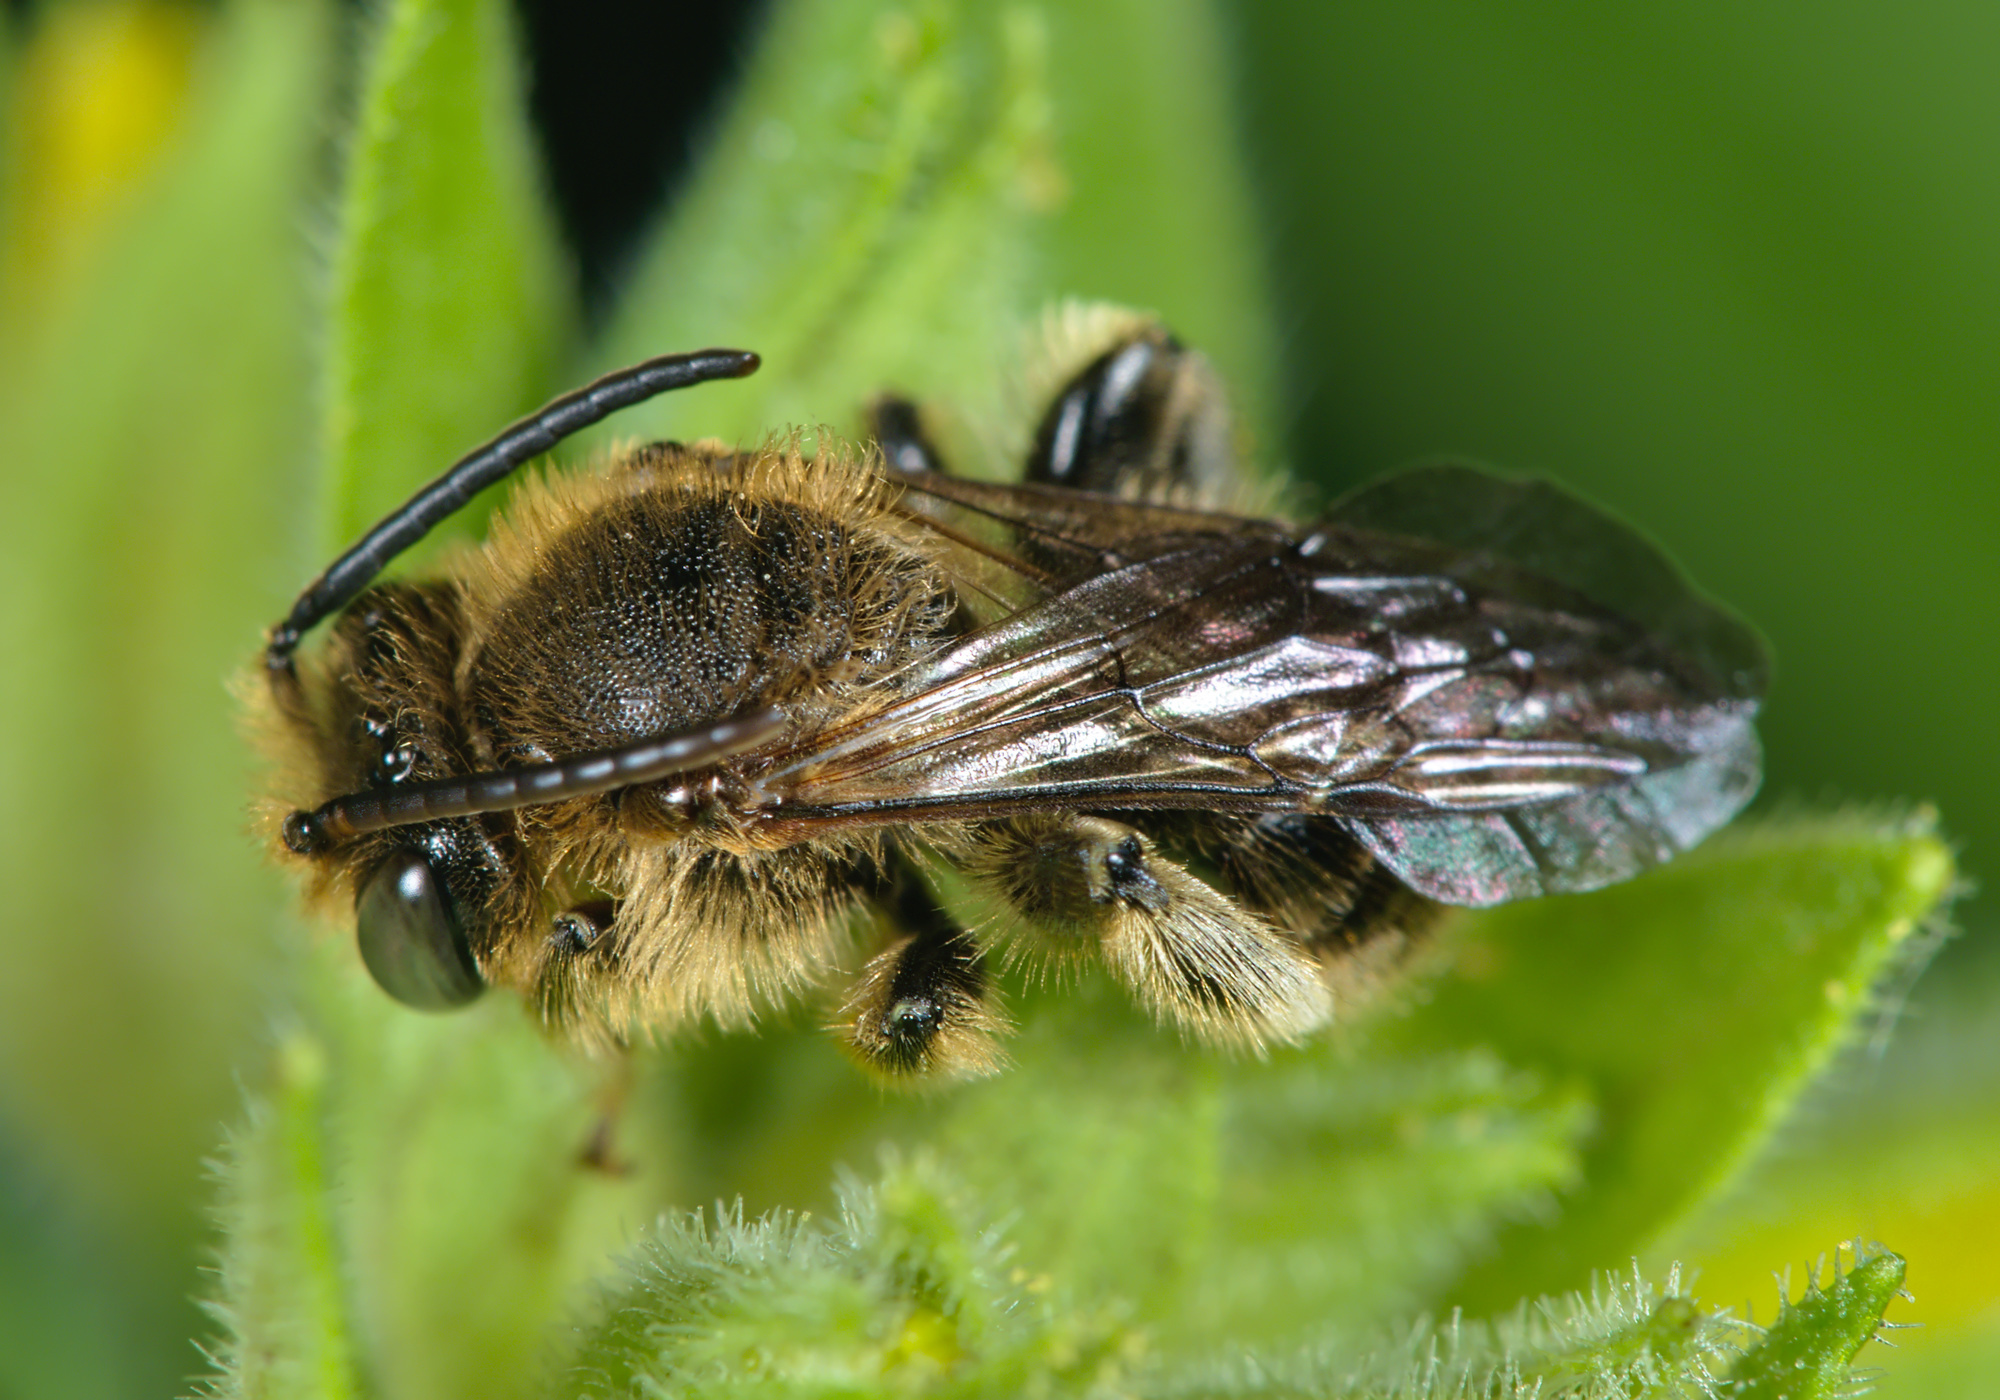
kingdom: Animalia
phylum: Arthropoda
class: Insecta
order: Hymenoptera
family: Melittidae
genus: Macropis
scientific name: Macropis fulvipes
